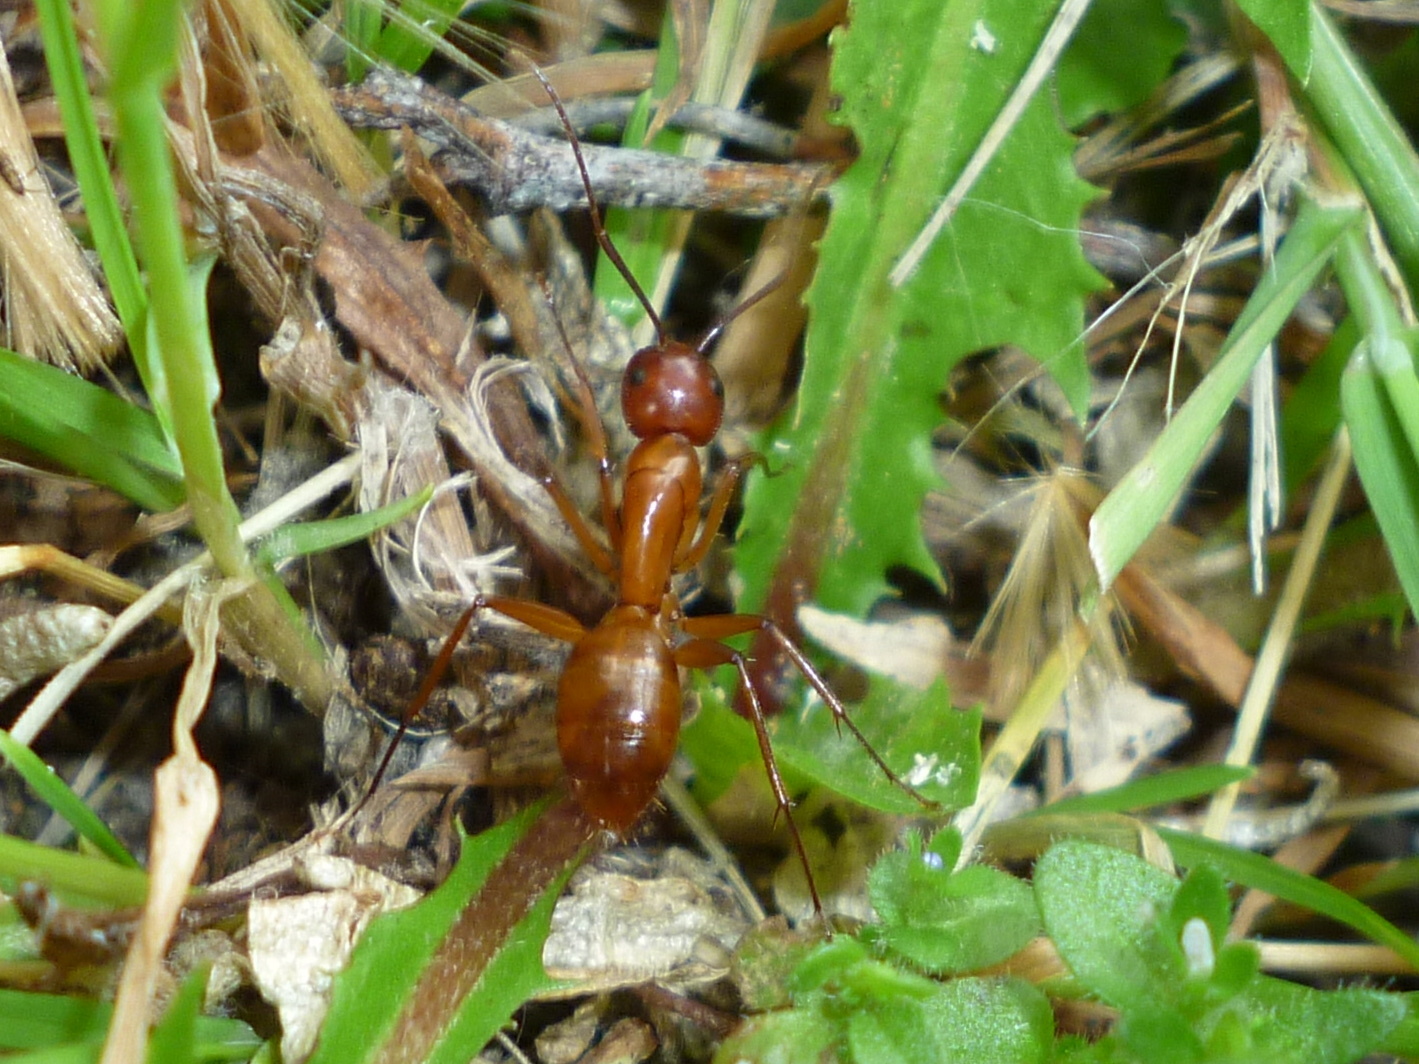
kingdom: Animalia
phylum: Arthropoda
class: Insecta
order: Hymenoptera
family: Formicidae
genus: Camponotus
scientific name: Camponotus castaneus
